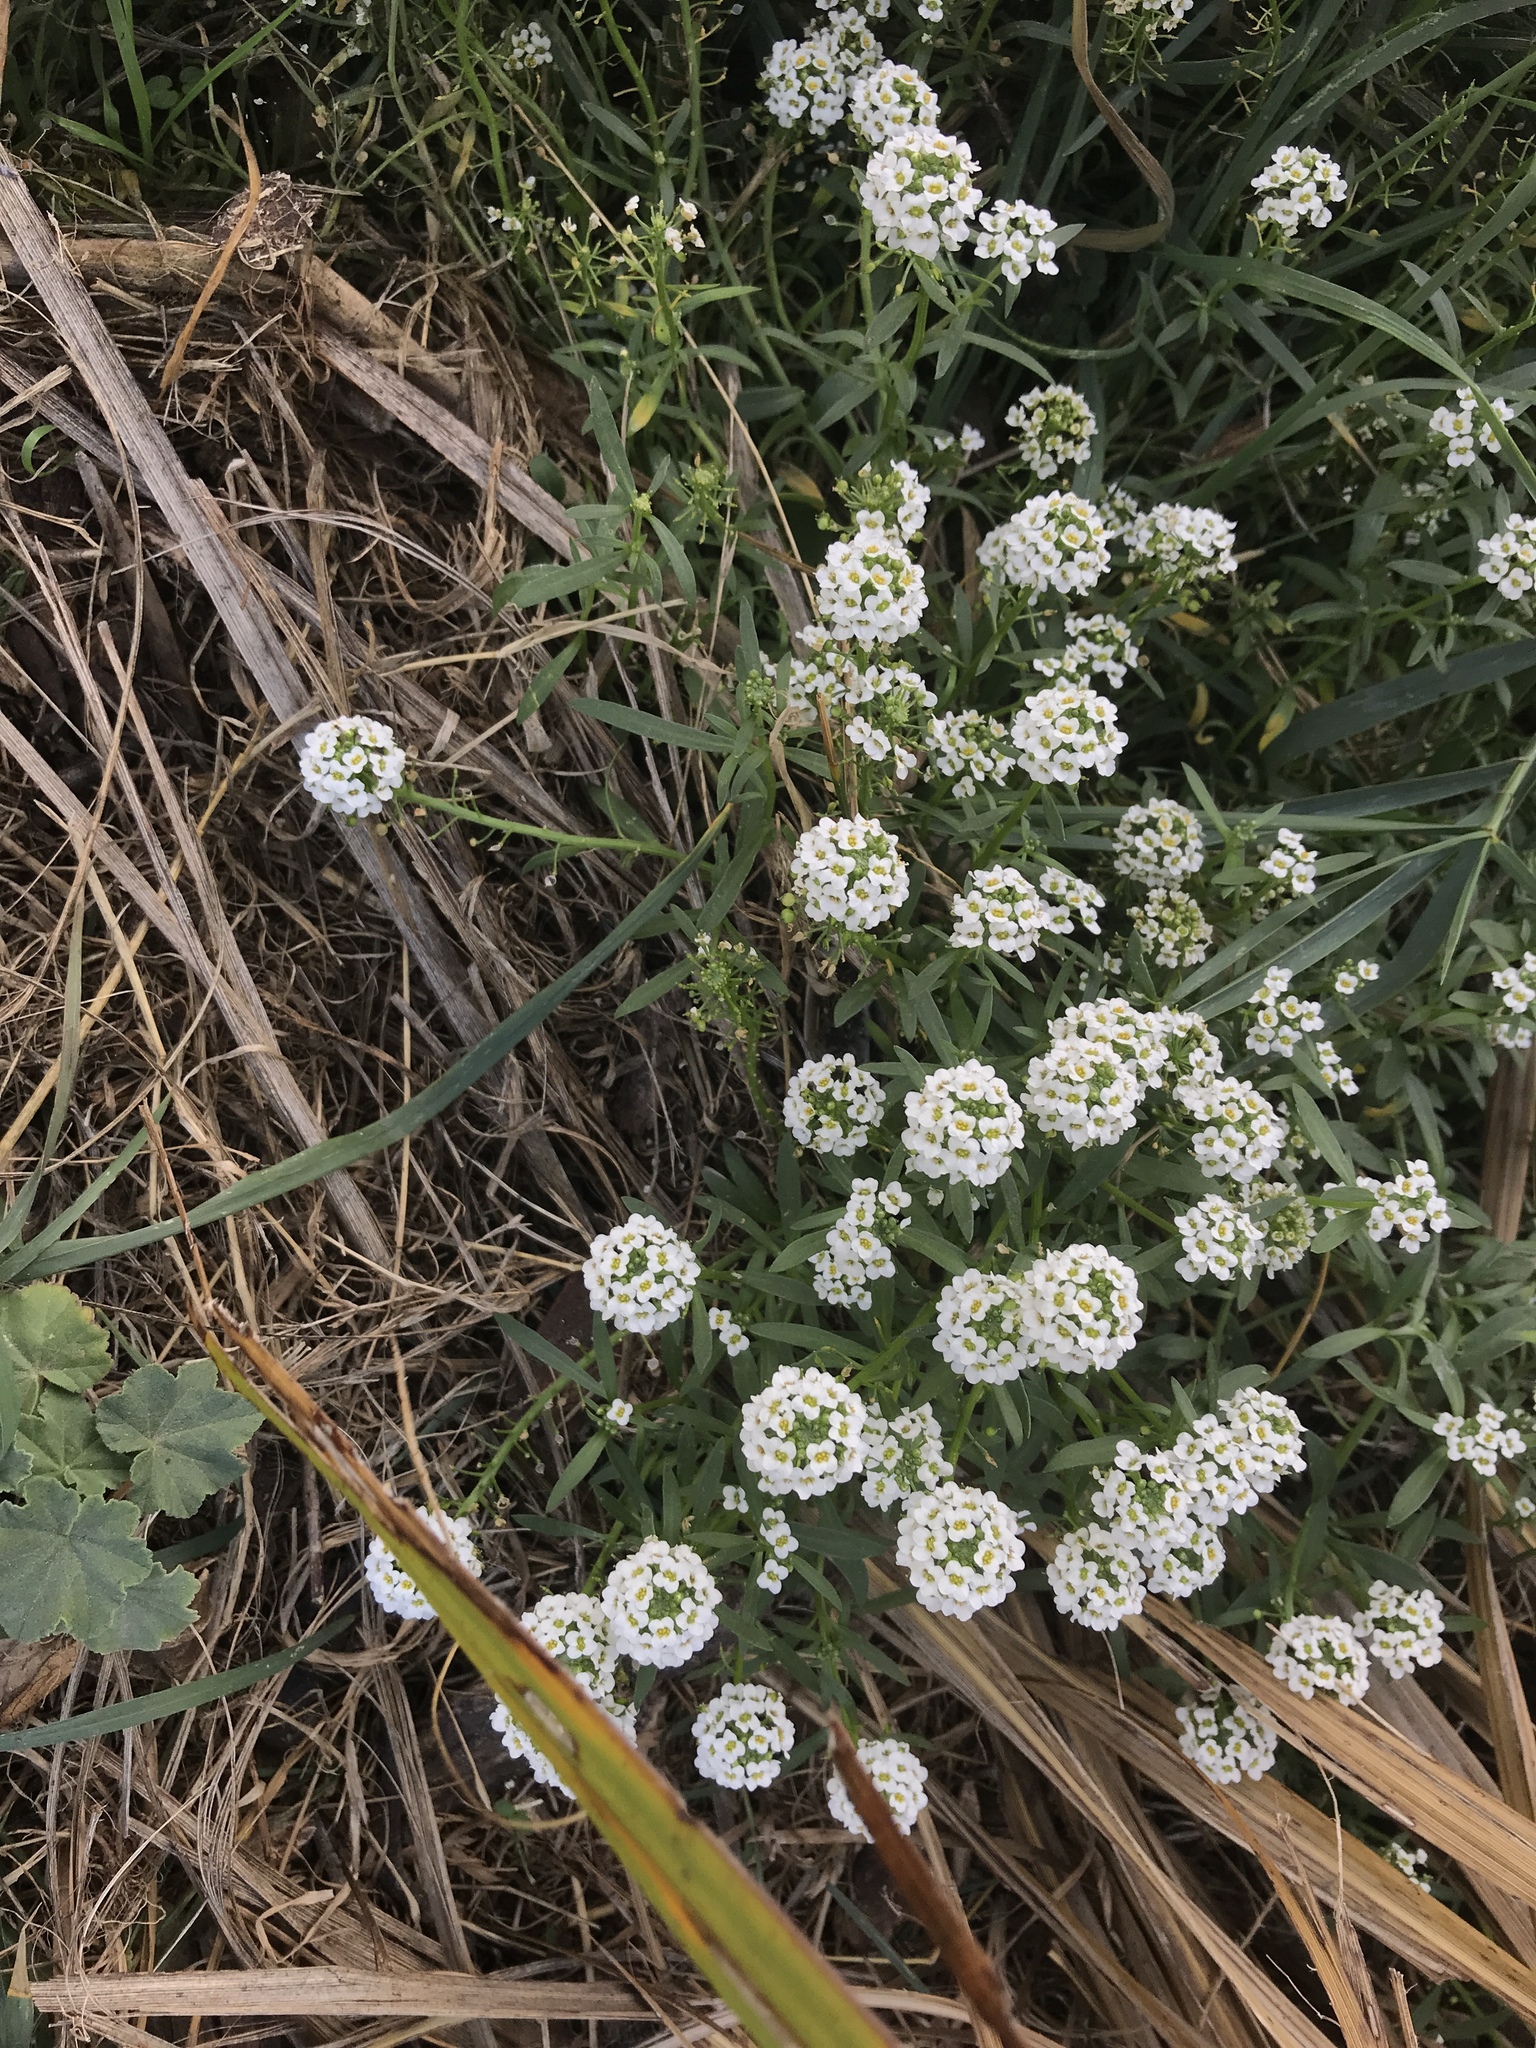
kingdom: Plantae
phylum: Tracheophyta
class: Magnoliopsida
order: Brassicales
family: Brassicaceae
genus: Lobularia
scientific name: Lobularia maritima
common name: Sweet alison
